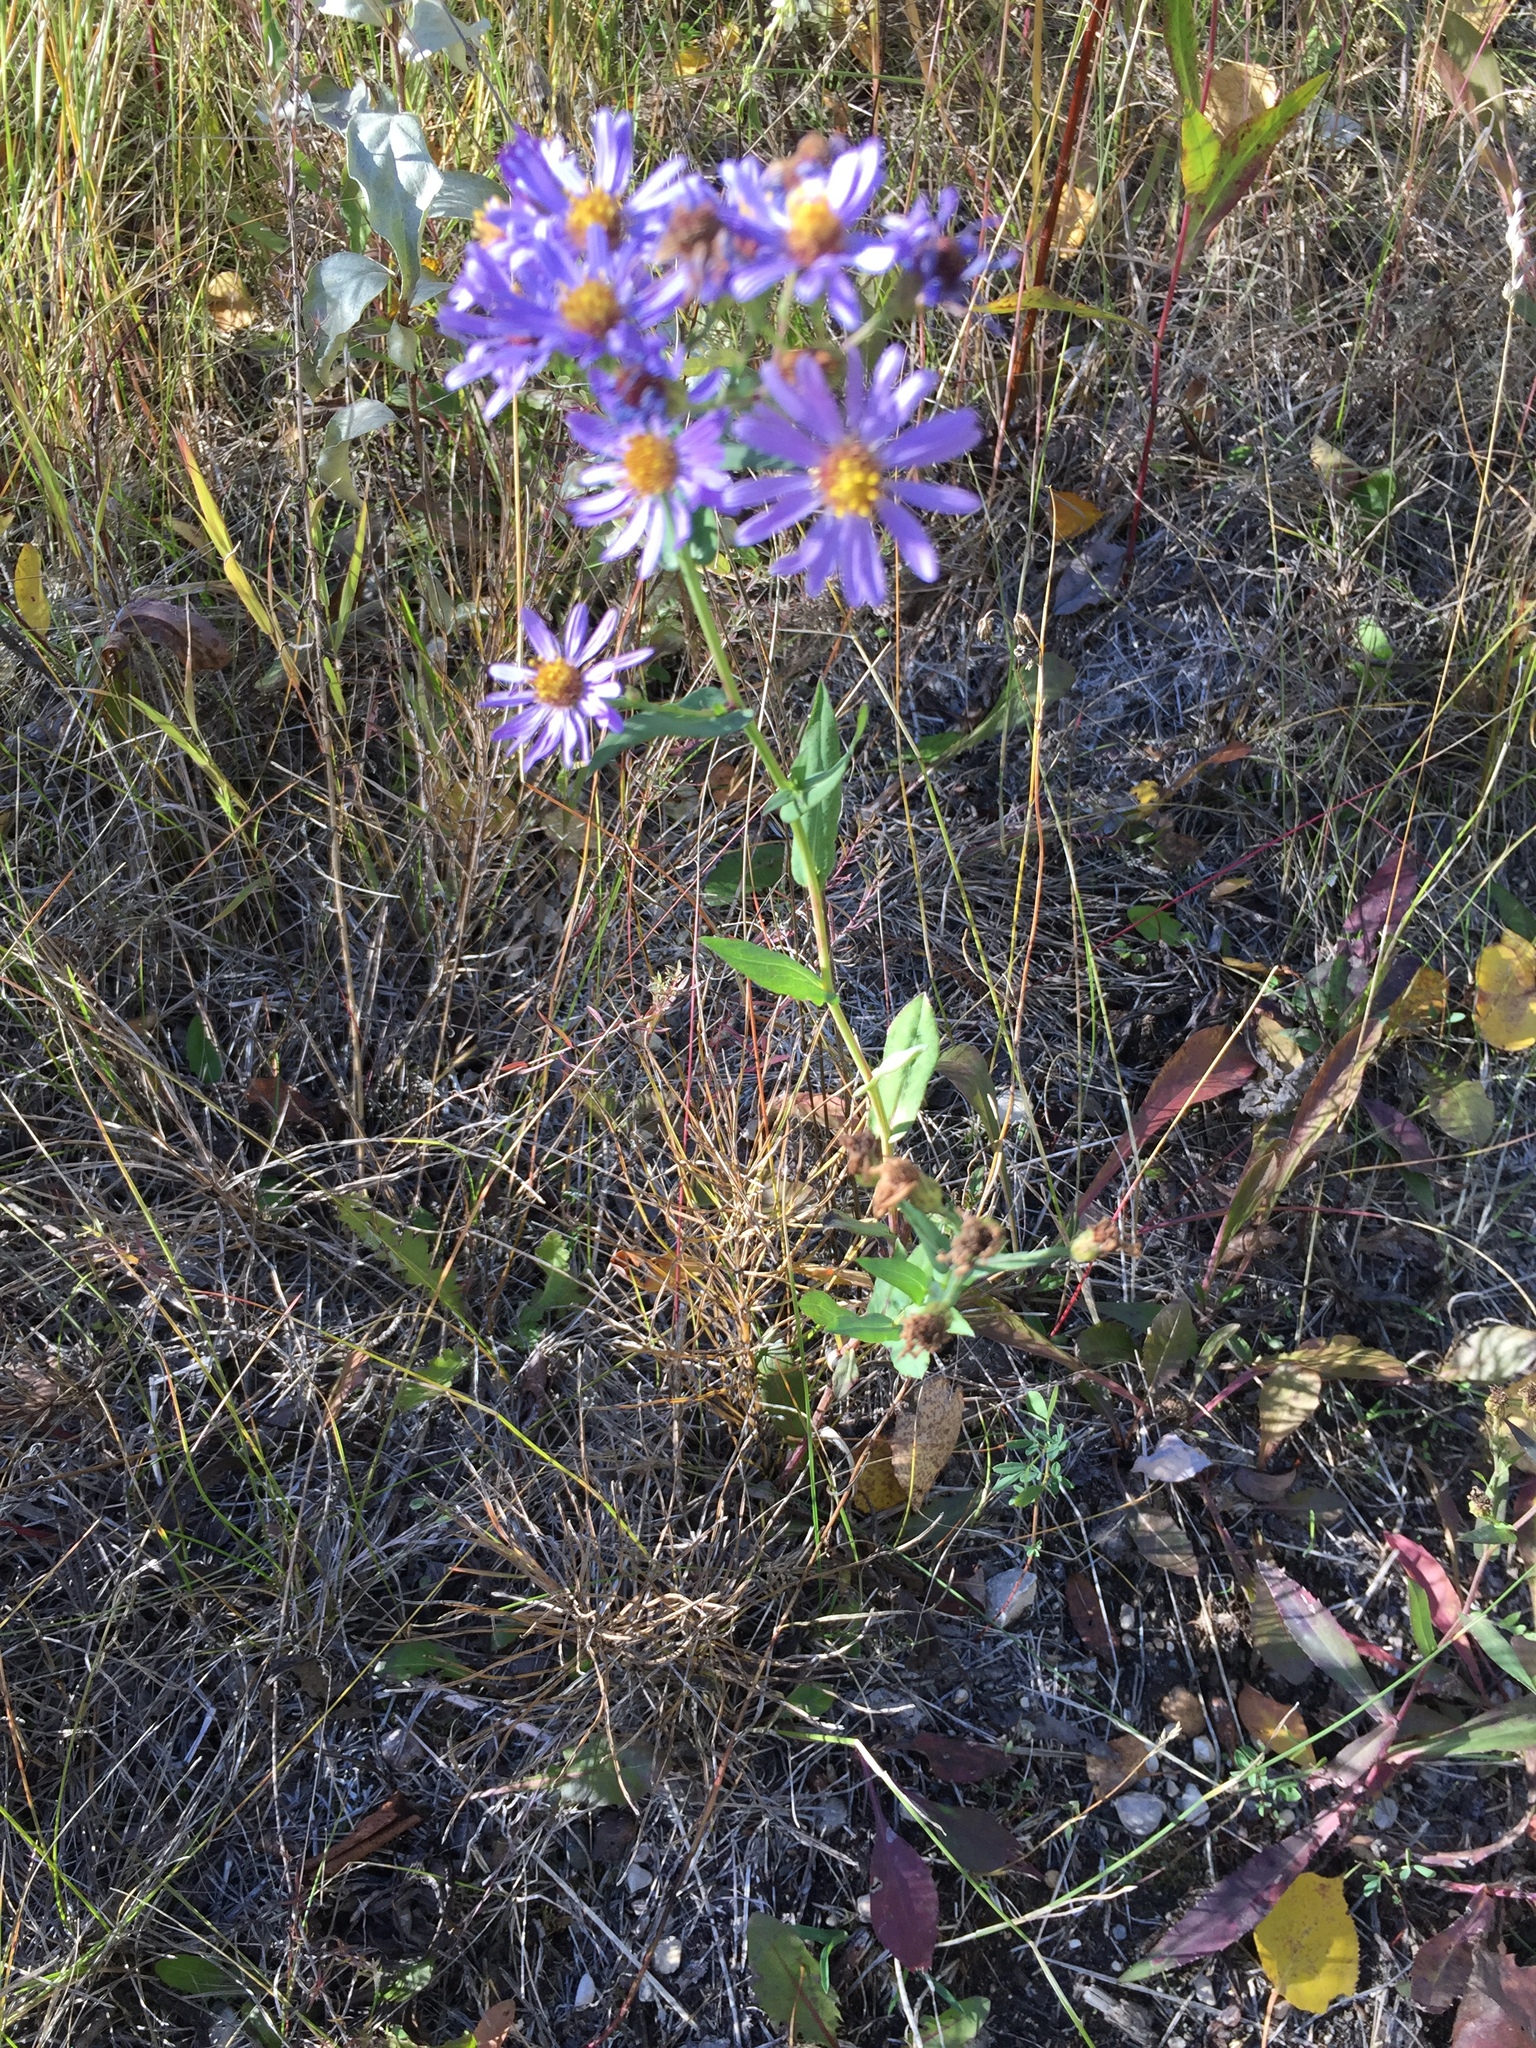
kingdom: Plantae
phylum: Tracheophyta
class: Magnoliopsida
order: Asterales
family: Asteraceae
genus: Symphyotrichum
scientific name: Symphyotrichum laeve
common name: Glaucous aster
